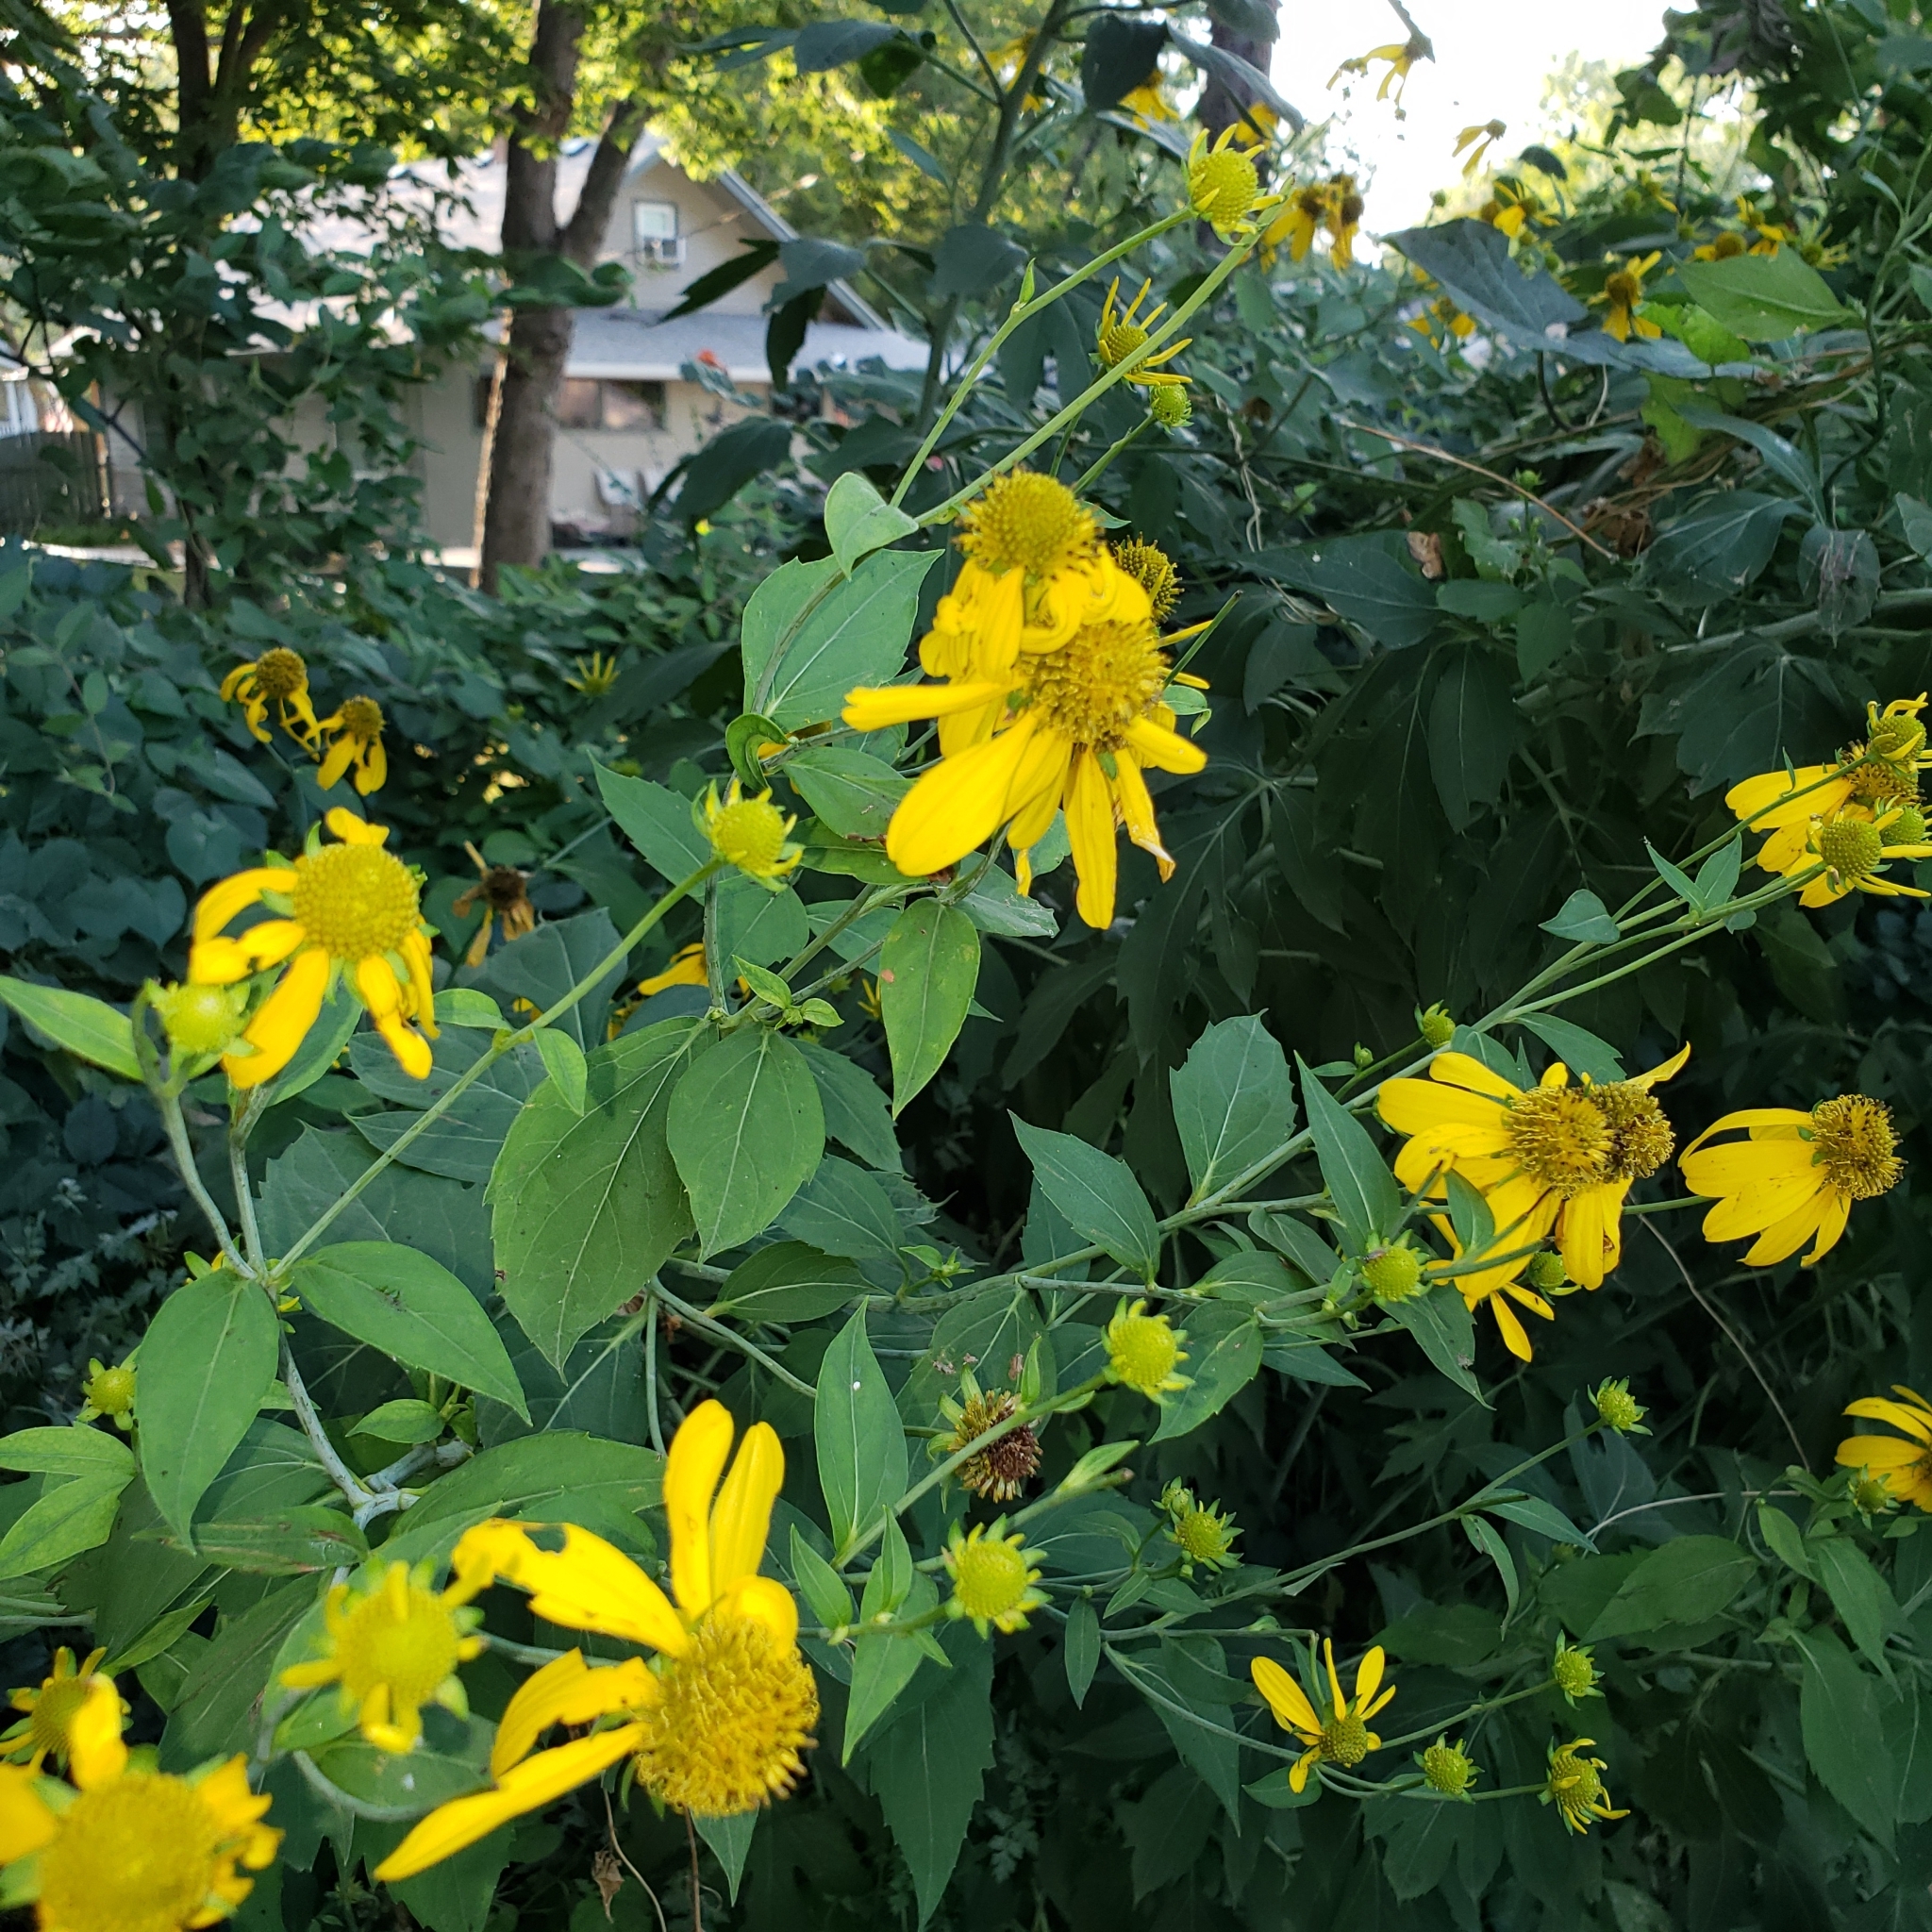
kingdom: Plantae
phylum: Tracheophyta
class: Magnoliopsida
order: Asterales
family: Asteraceae
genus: Rudbeckia
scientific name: Rudbeckia laciniata
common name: Coneflower
